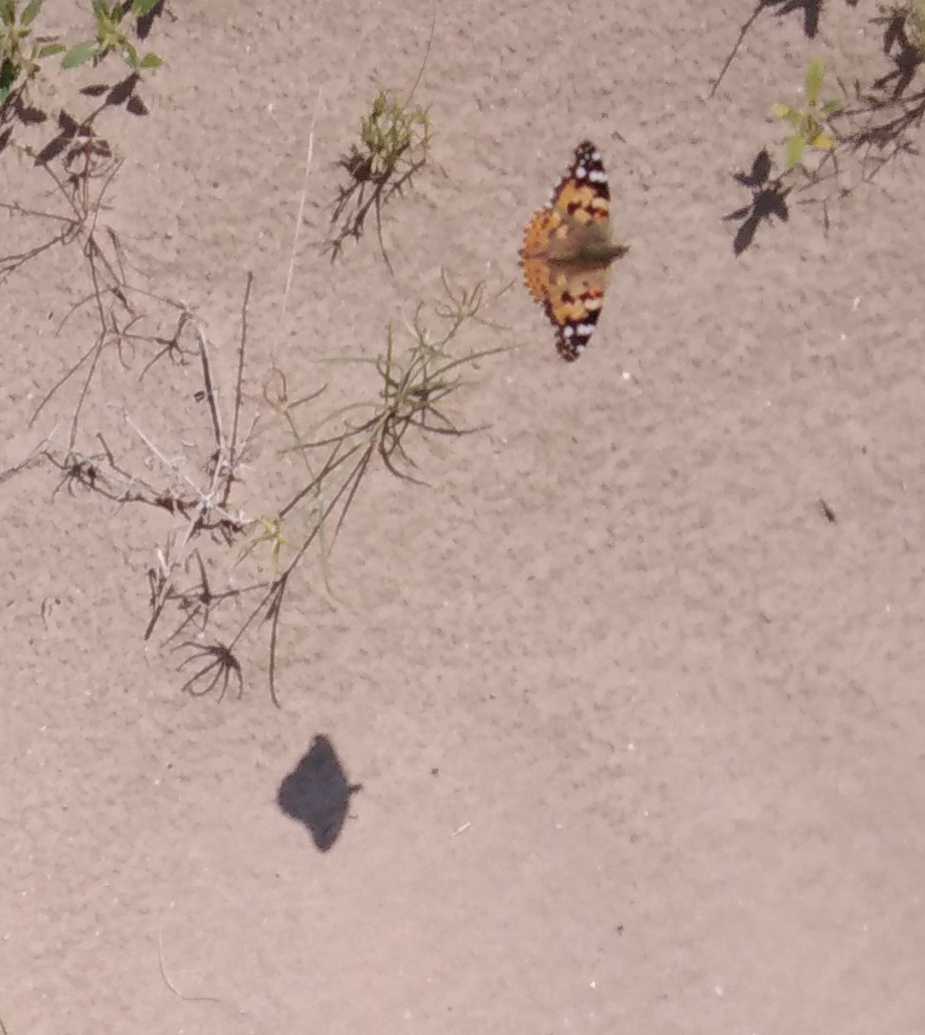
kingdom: Animalia
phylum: Arthropoda
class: Insecta
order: Lepidoptera
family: Nymphalidae
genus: Vanessa
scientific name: Vanessa cardui
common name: Painted lady
